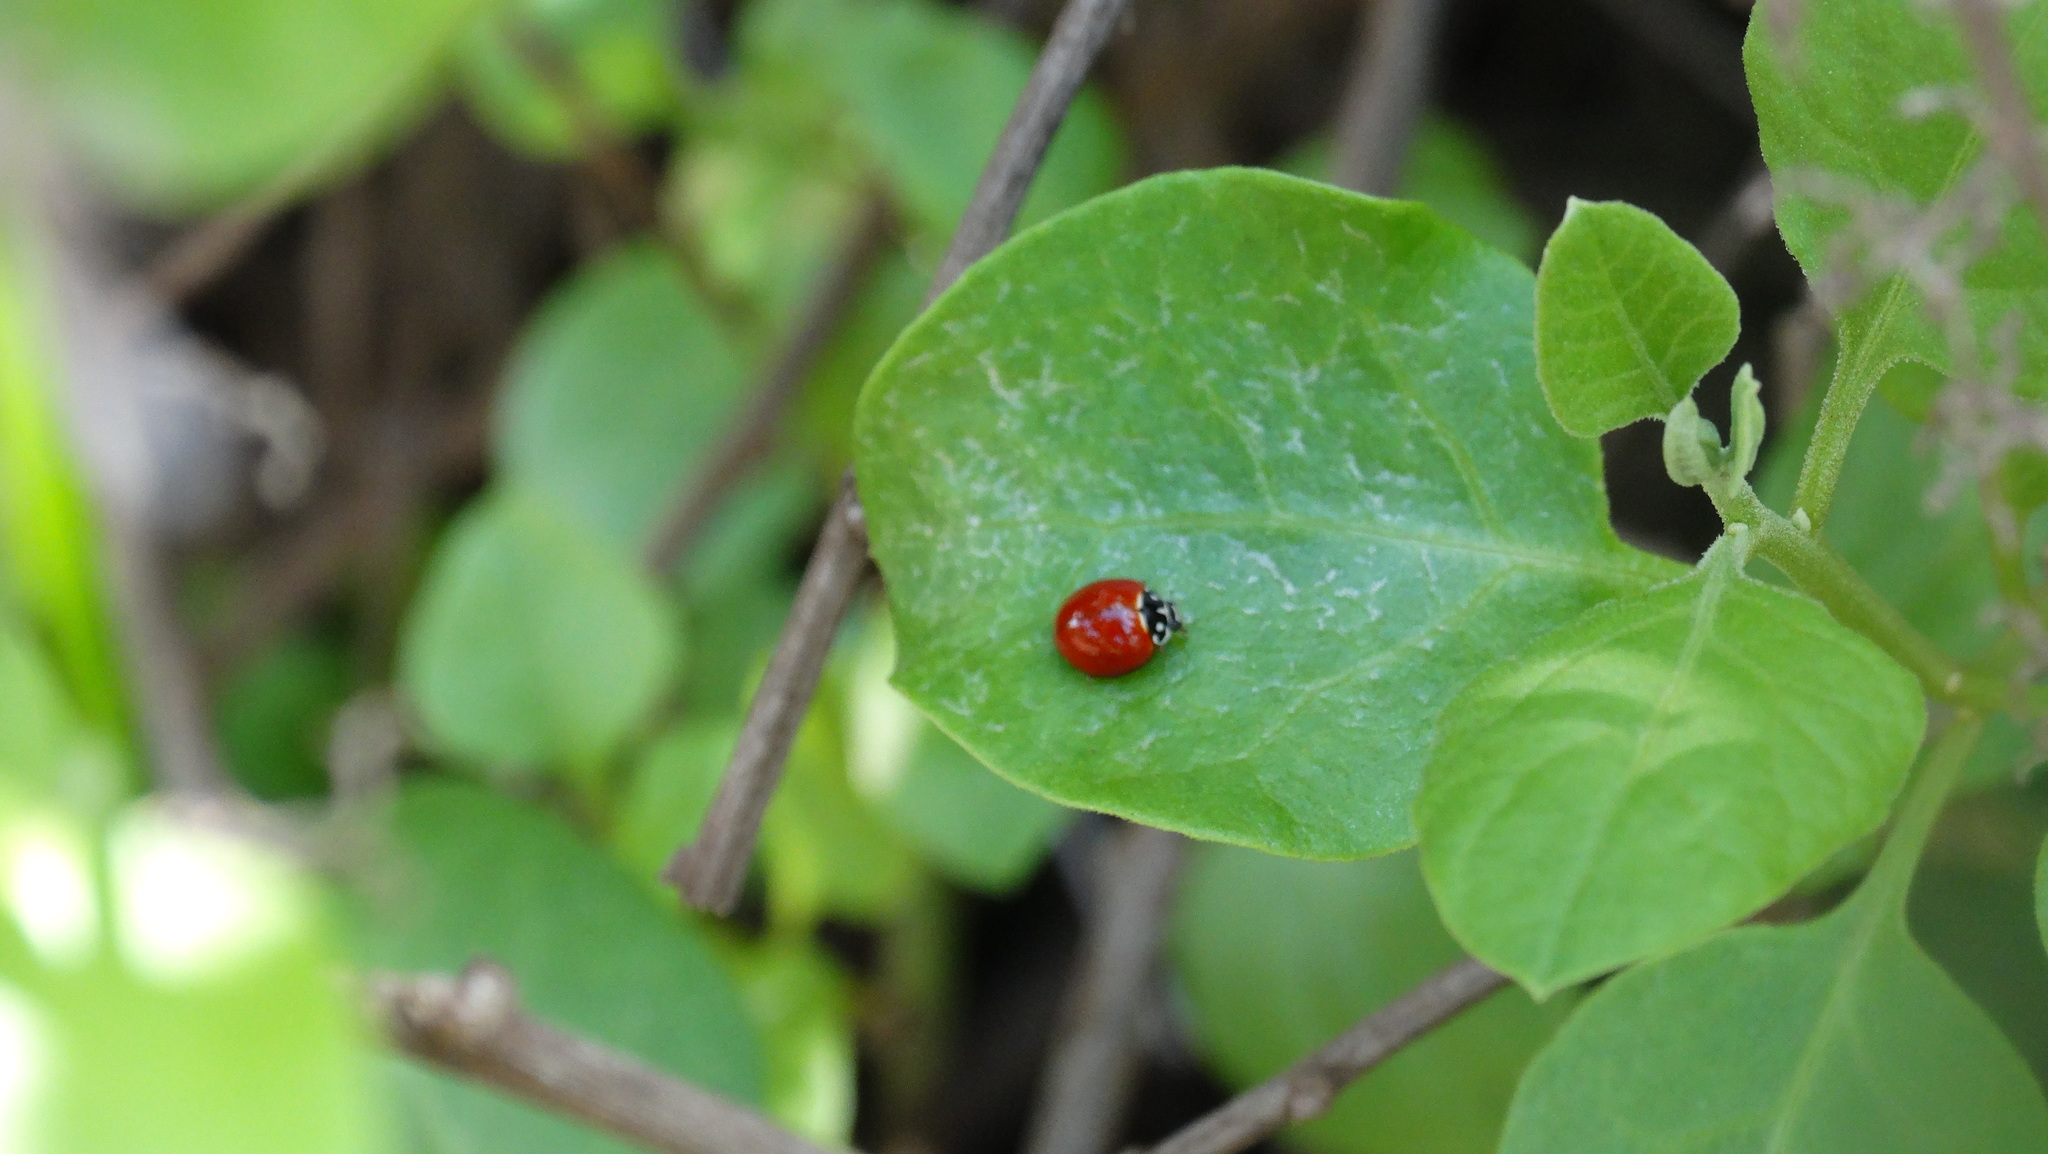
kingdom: Animalia
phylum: Arthropoda
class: Insecta
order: Coleoptera
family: Coccinellidae
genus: Cycloneda
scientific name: Cycloneda sanguinea
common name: Ladybird beetle
